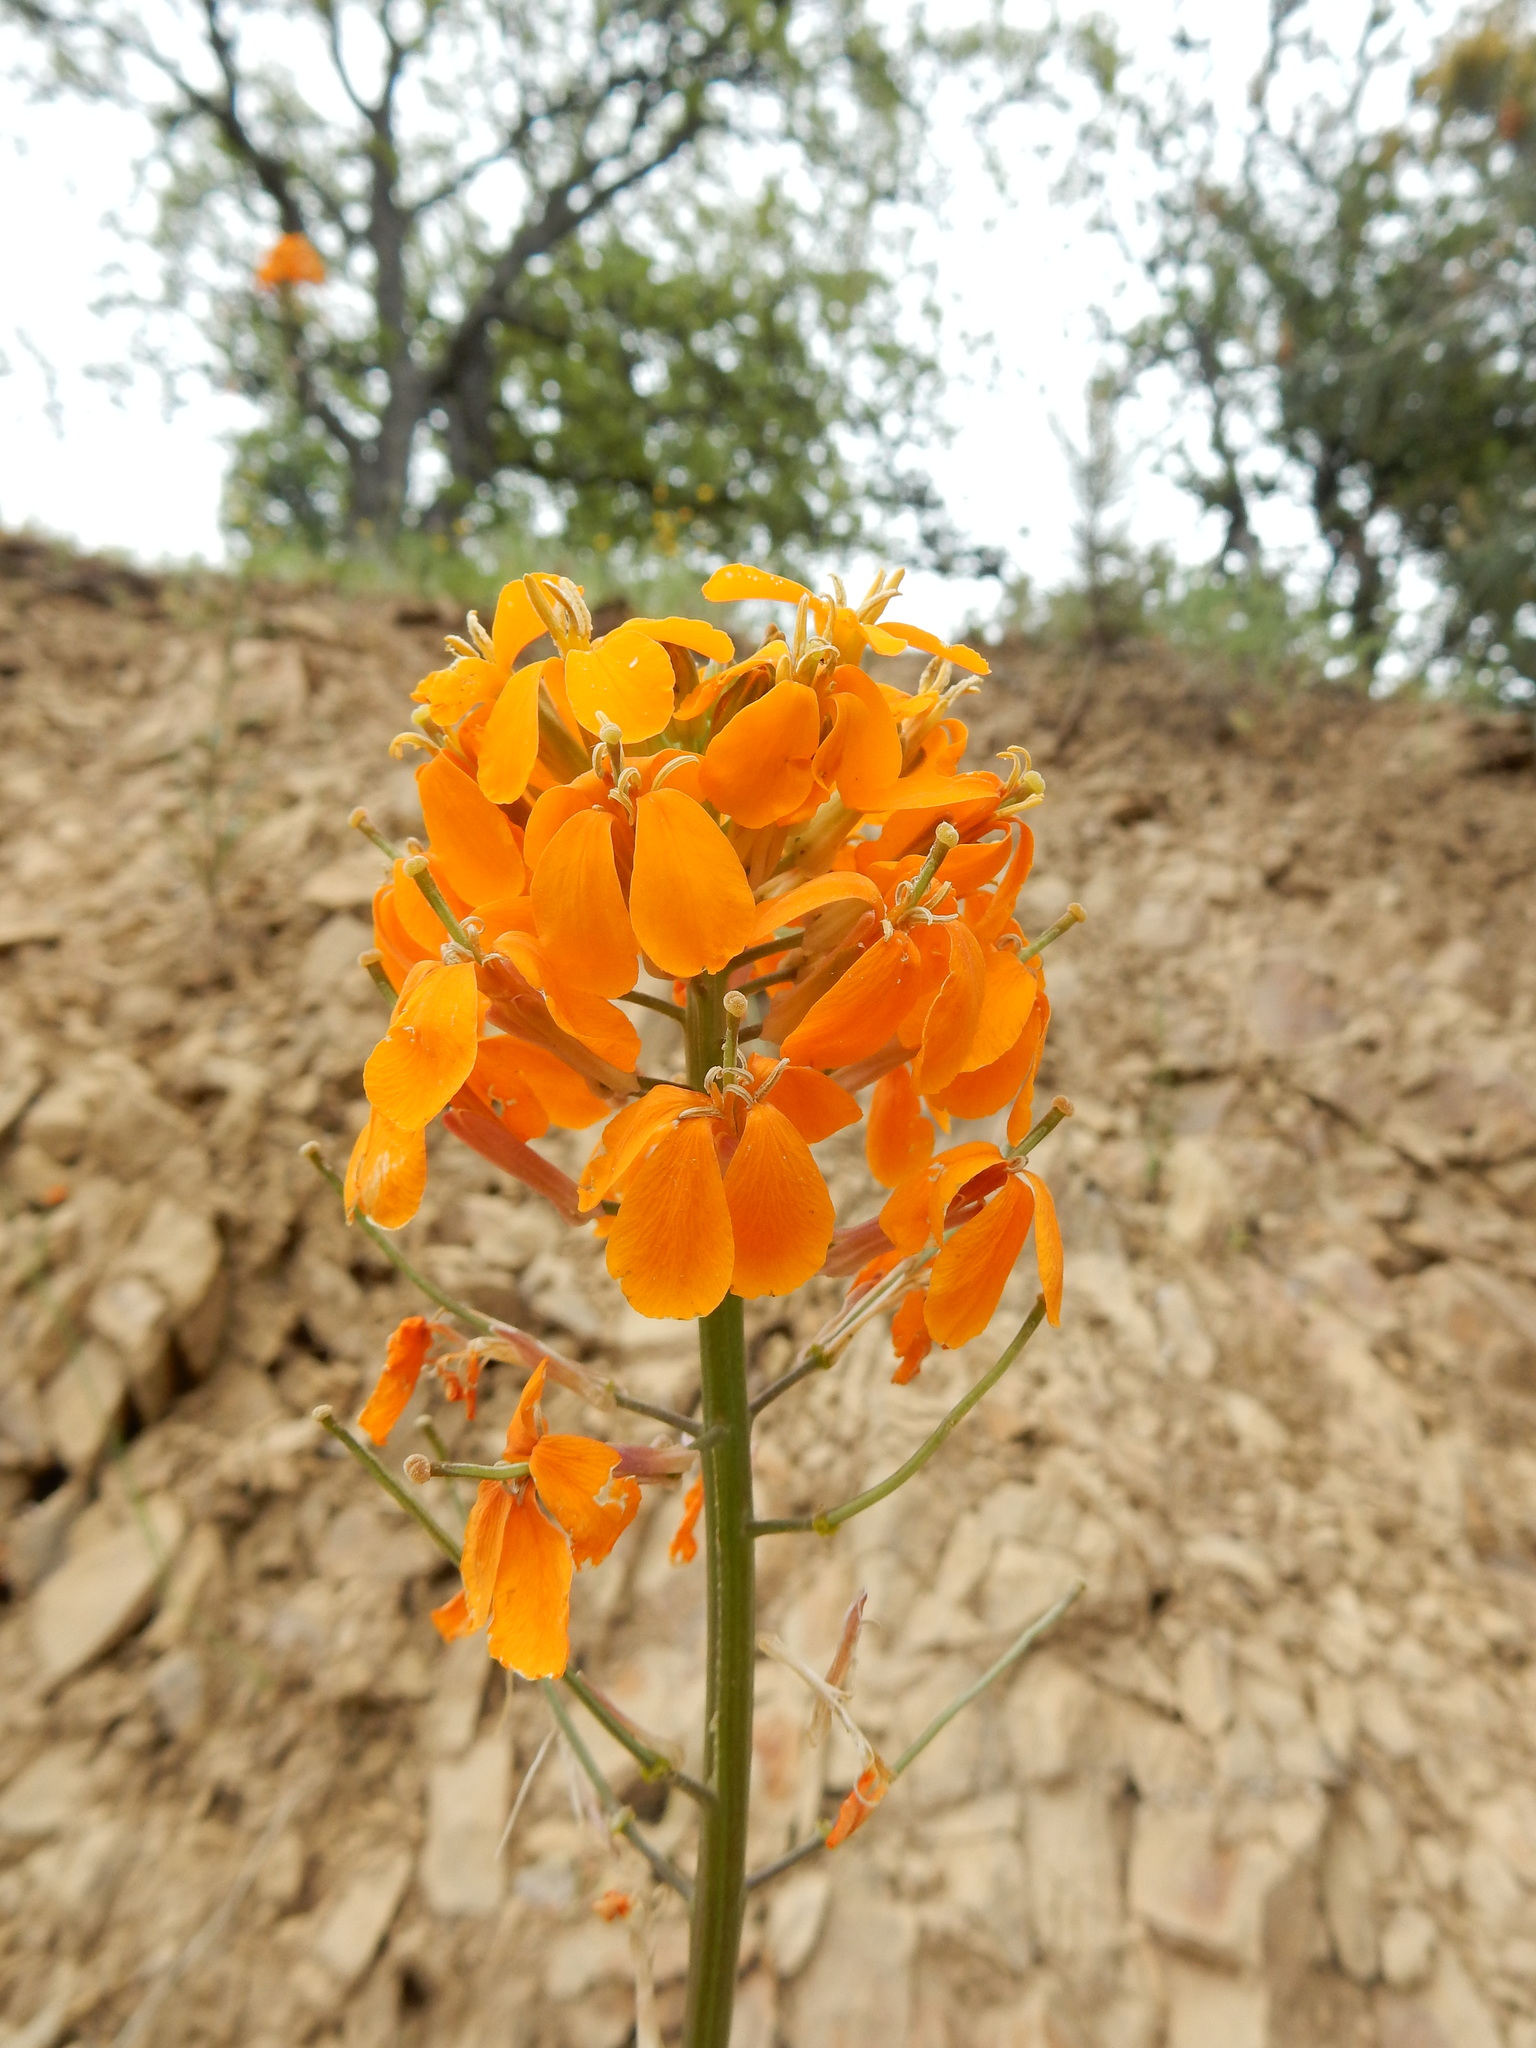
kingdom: Plantae
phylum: Tracheophyta
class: Magnoliopsida
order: Brassicales
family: Brassicaceae
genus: Erysimum
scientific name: Erysimum capitatum
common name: Western wallflower
